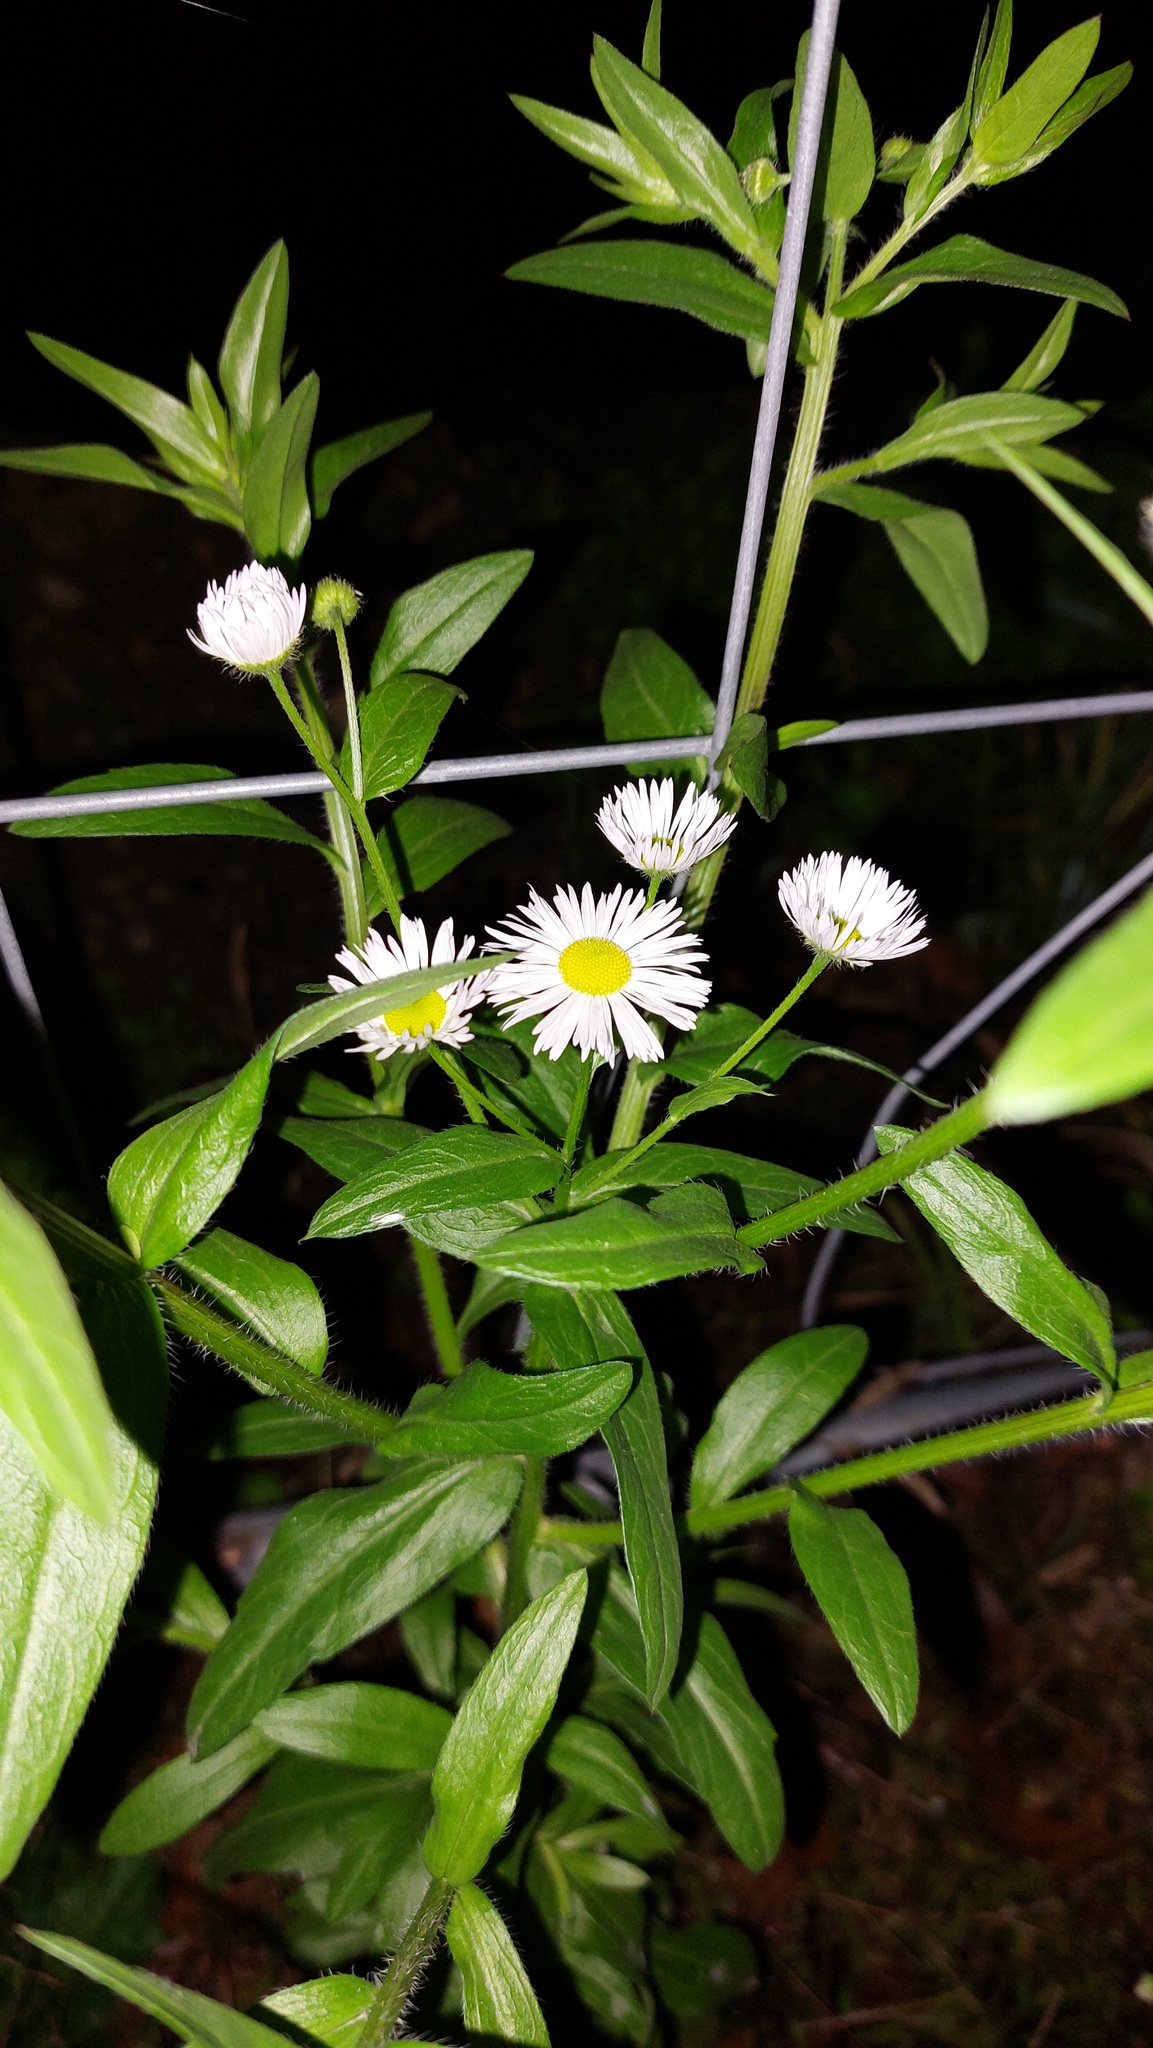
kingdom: Plantae
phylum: Tracheophyta
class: Magnoliopsida
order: Asterales
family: Asteraceae
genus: Erigeron
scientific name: Erigeron annuus
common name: Tall fleabane
